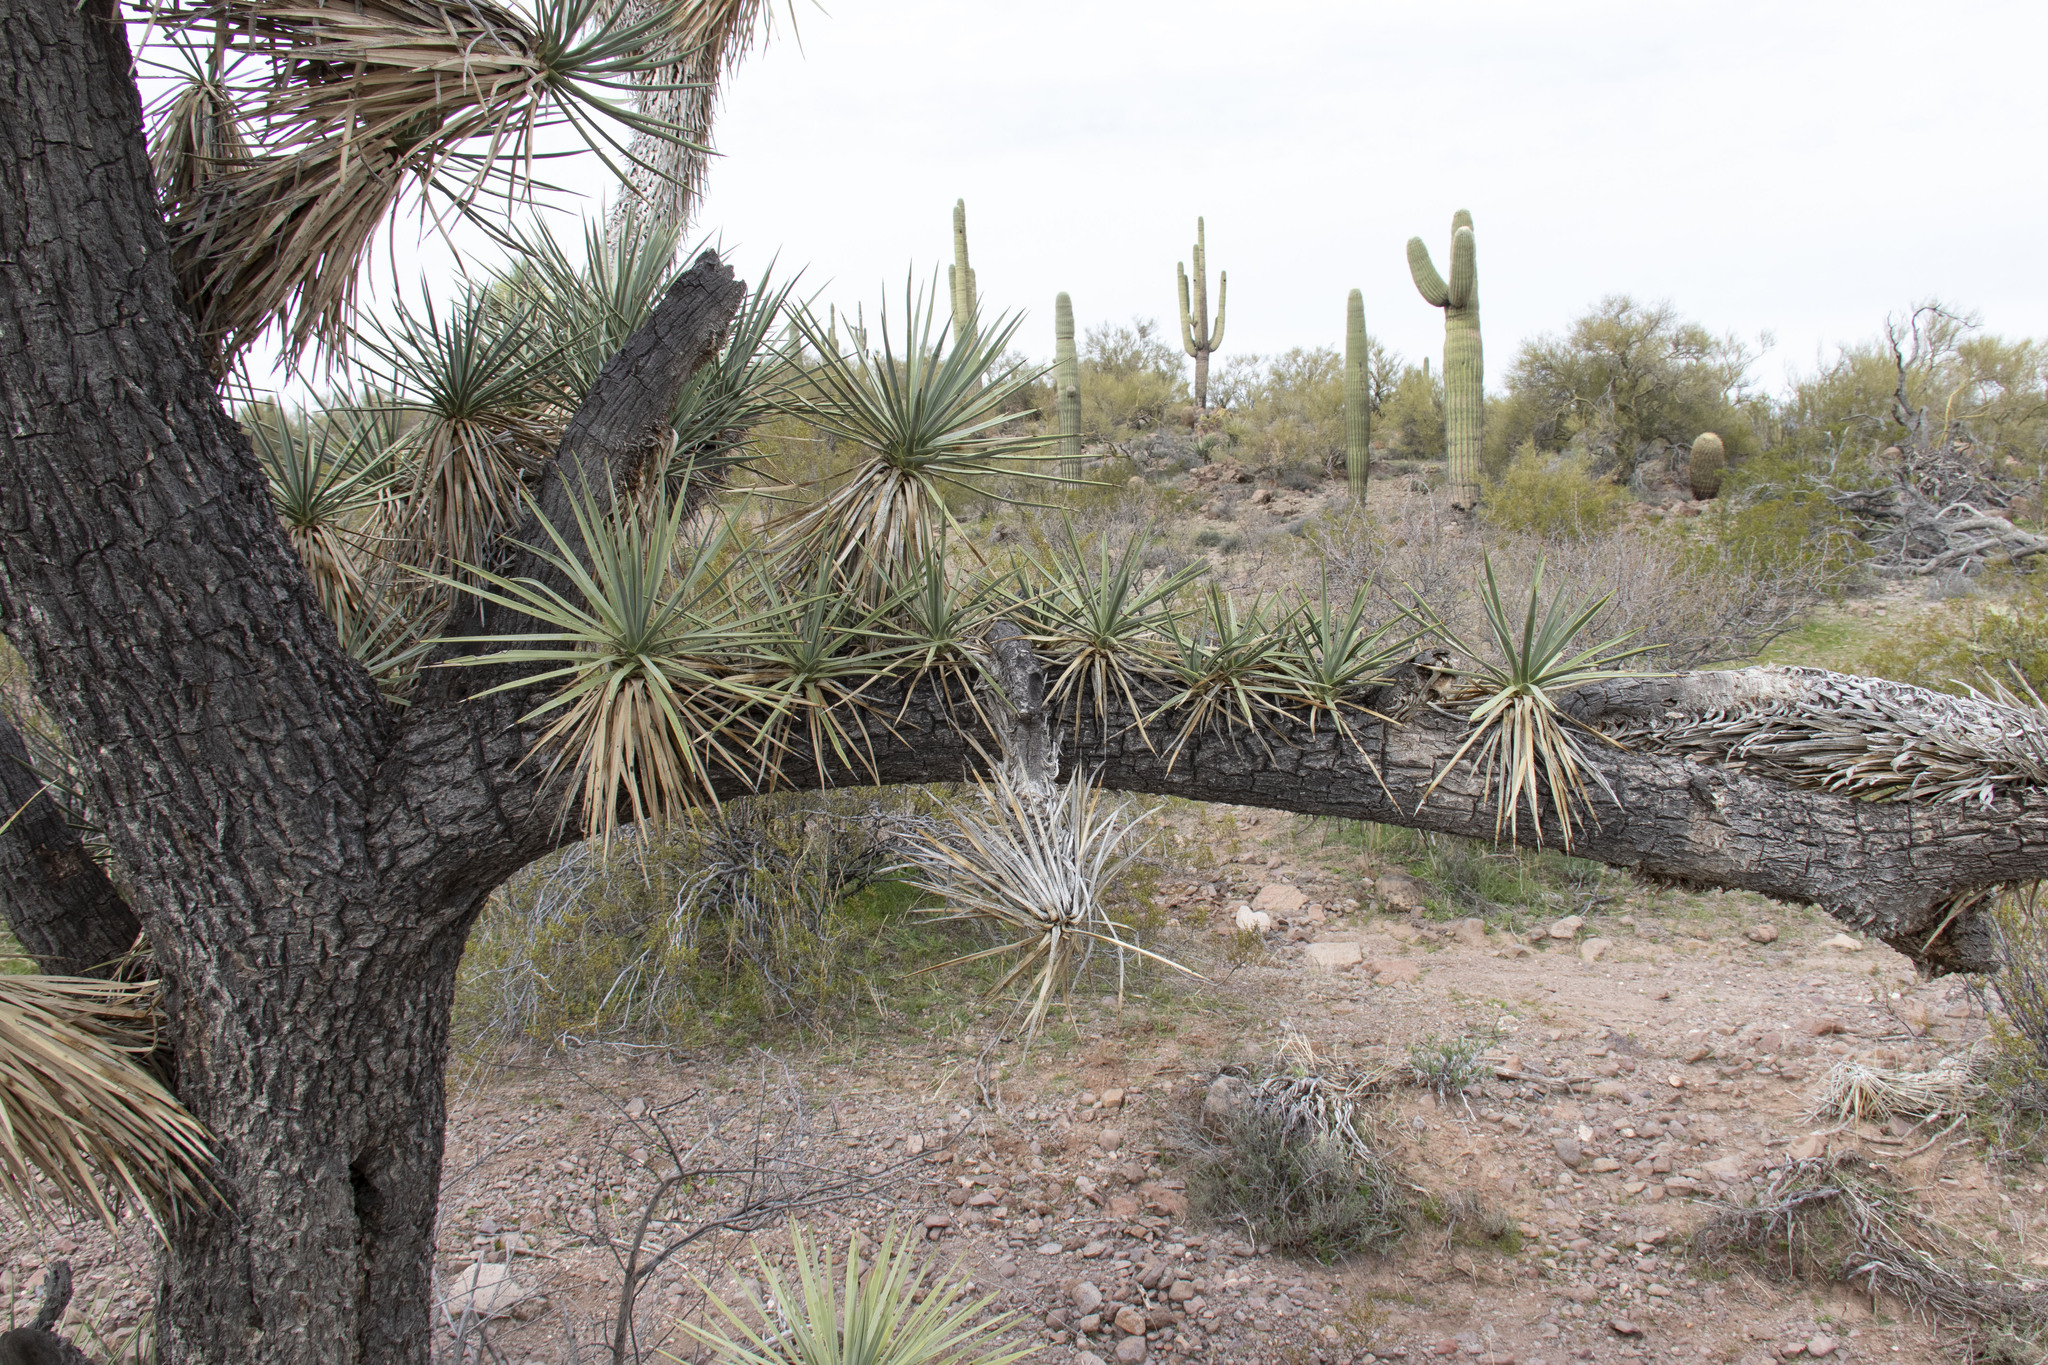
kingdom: Plantae
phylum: Tracheophyta
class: Liliopsida
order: Asparagales
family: Asparagaceae
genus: Yucca
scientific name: Yucca brevifolia
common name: Joshua tree
